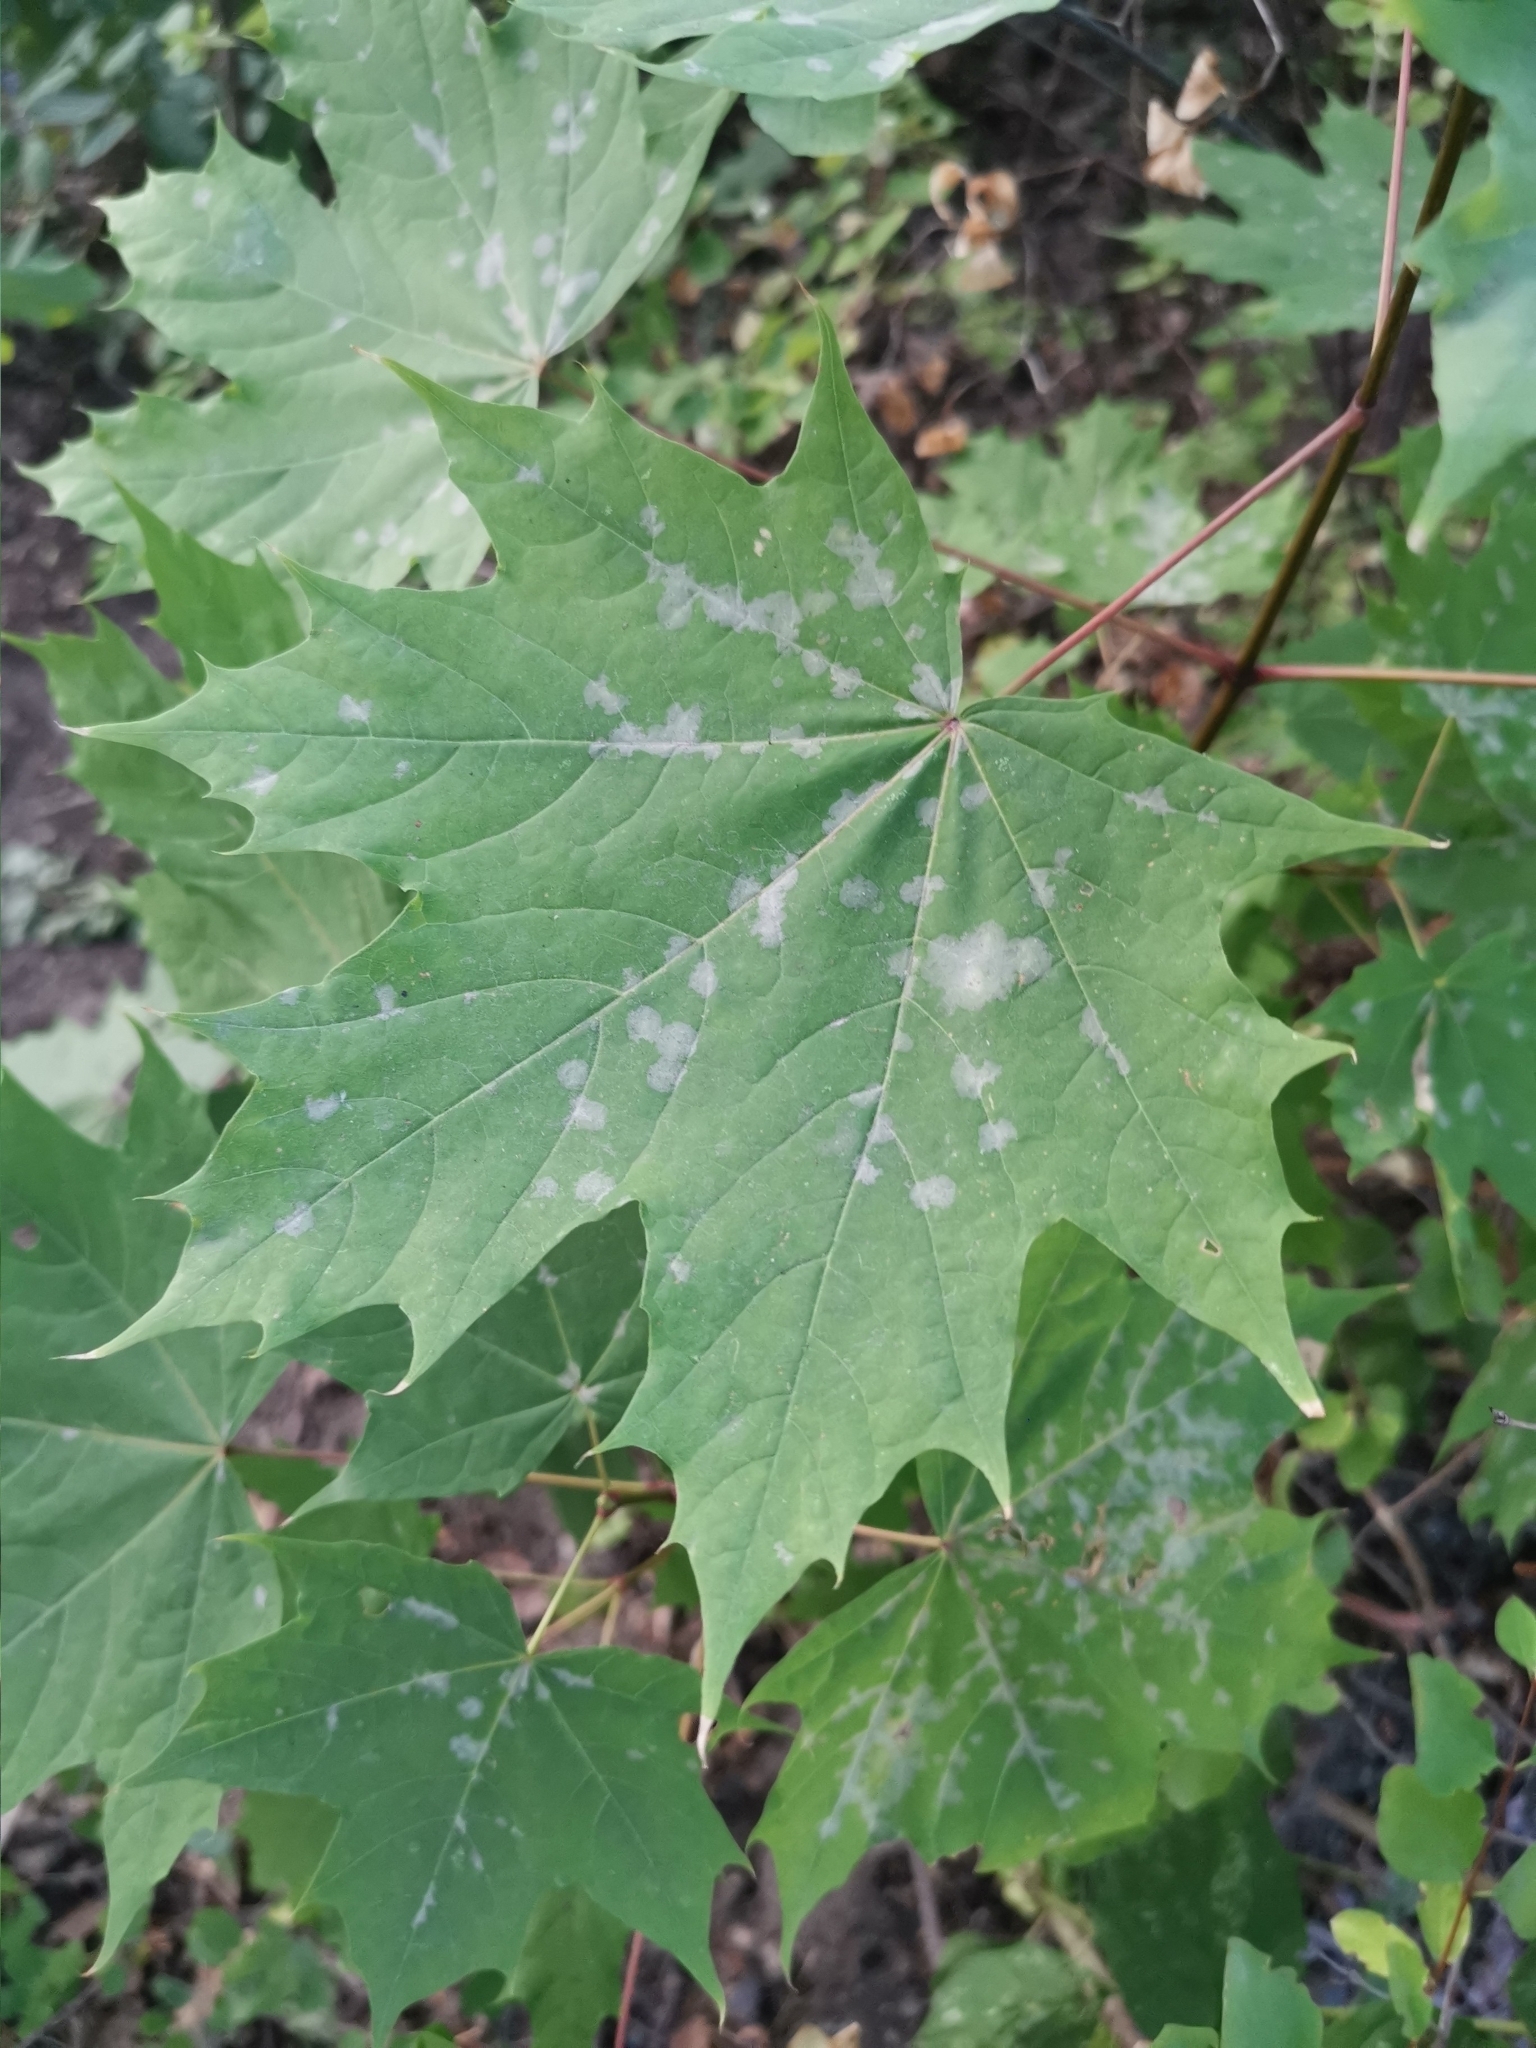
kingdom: Plantae
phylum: Tracheophyta
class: Magnoliopsida
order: Sapindales
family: Sapindaceae
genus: Acer
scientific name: Acer platanoides
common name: Norway maple
